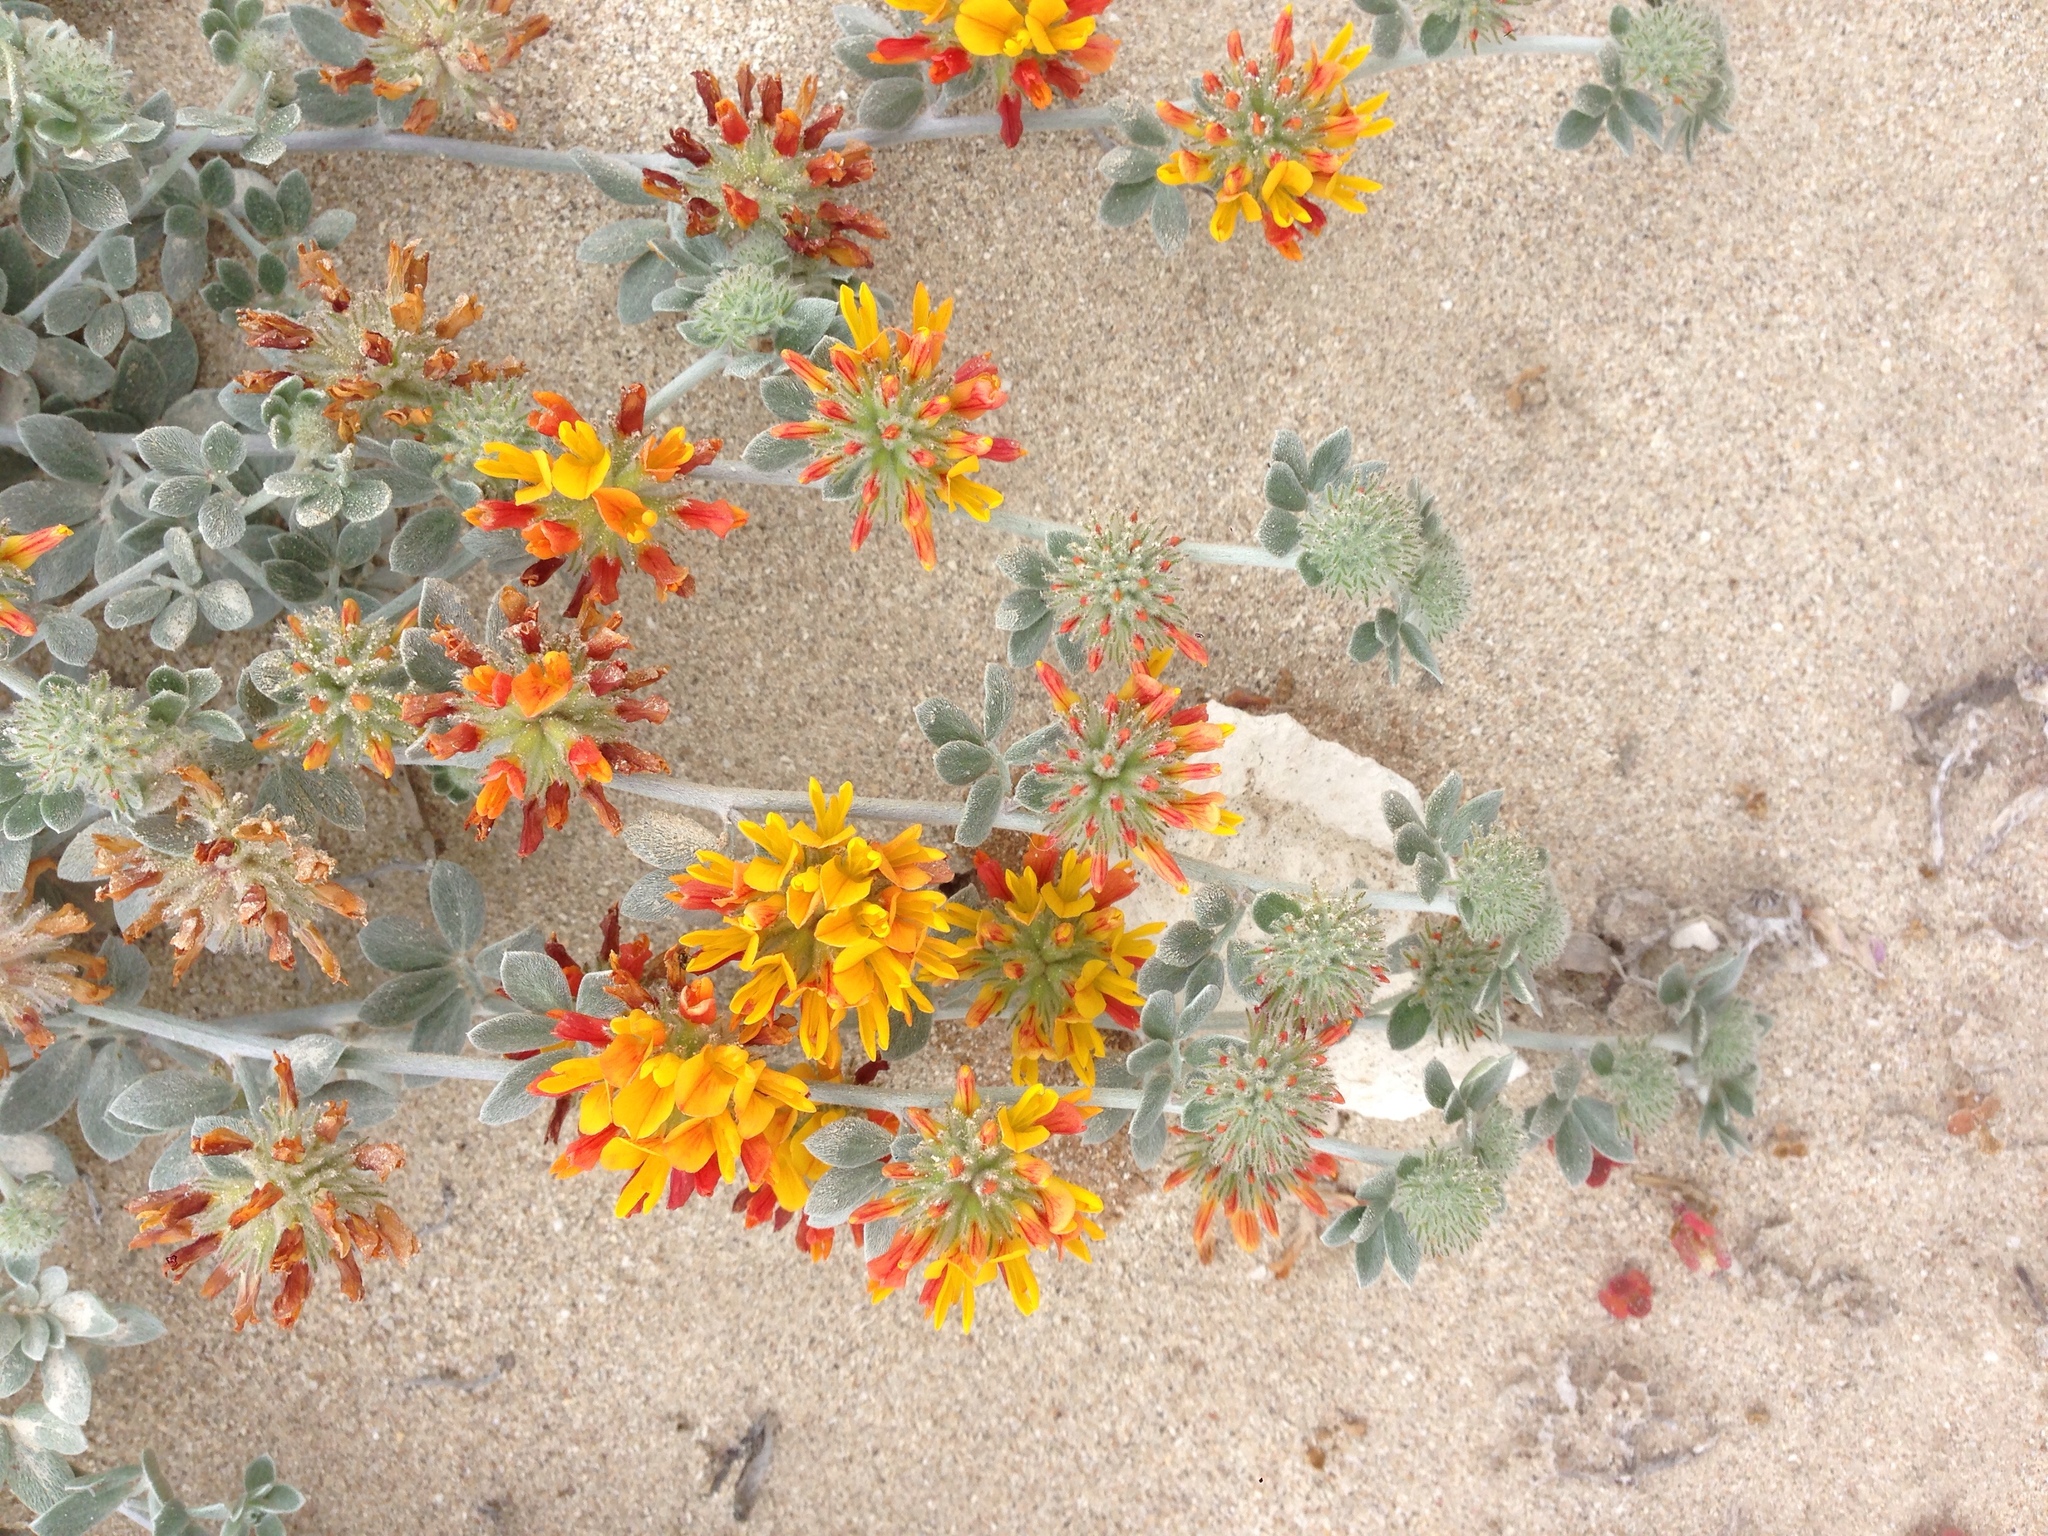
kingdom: Plantae
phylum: Tracheophyta
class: Magnoliopsida
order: Fabales
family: Fabaceae
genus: Acmispon
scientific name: Acmispon argophyllus
